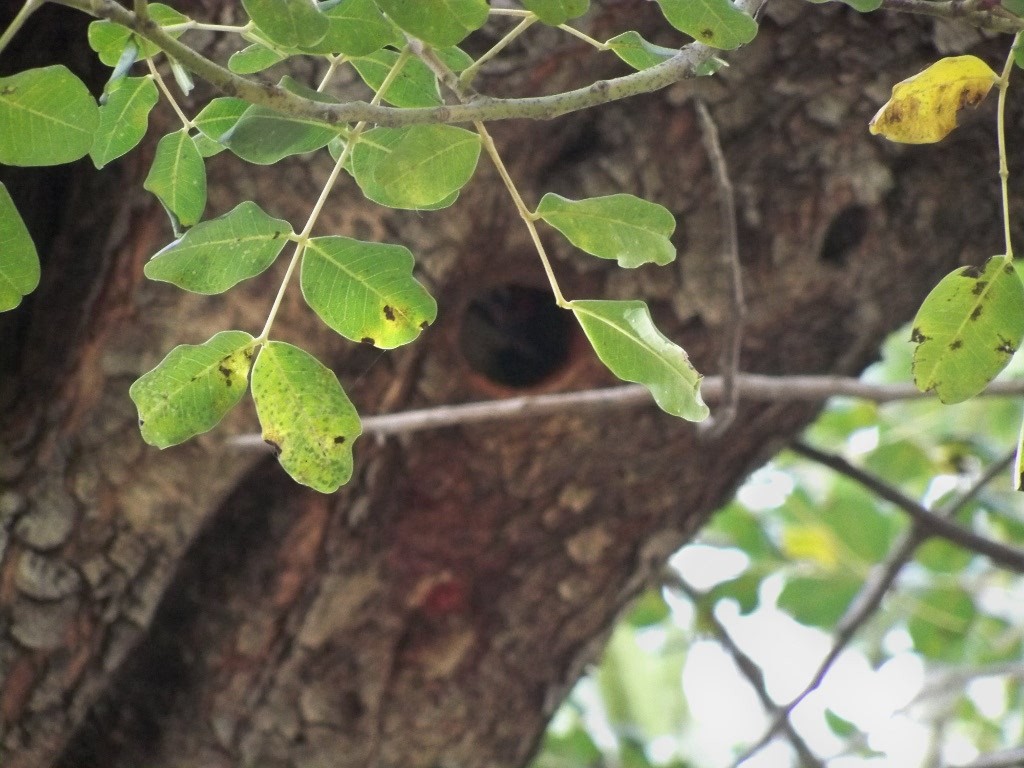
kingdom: Animalia
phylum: Chordata
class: Aves
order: Piciformes
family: Picidae
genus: Dendrocopos
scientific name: Dendrocopos major
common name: Great spotted woodpecker
